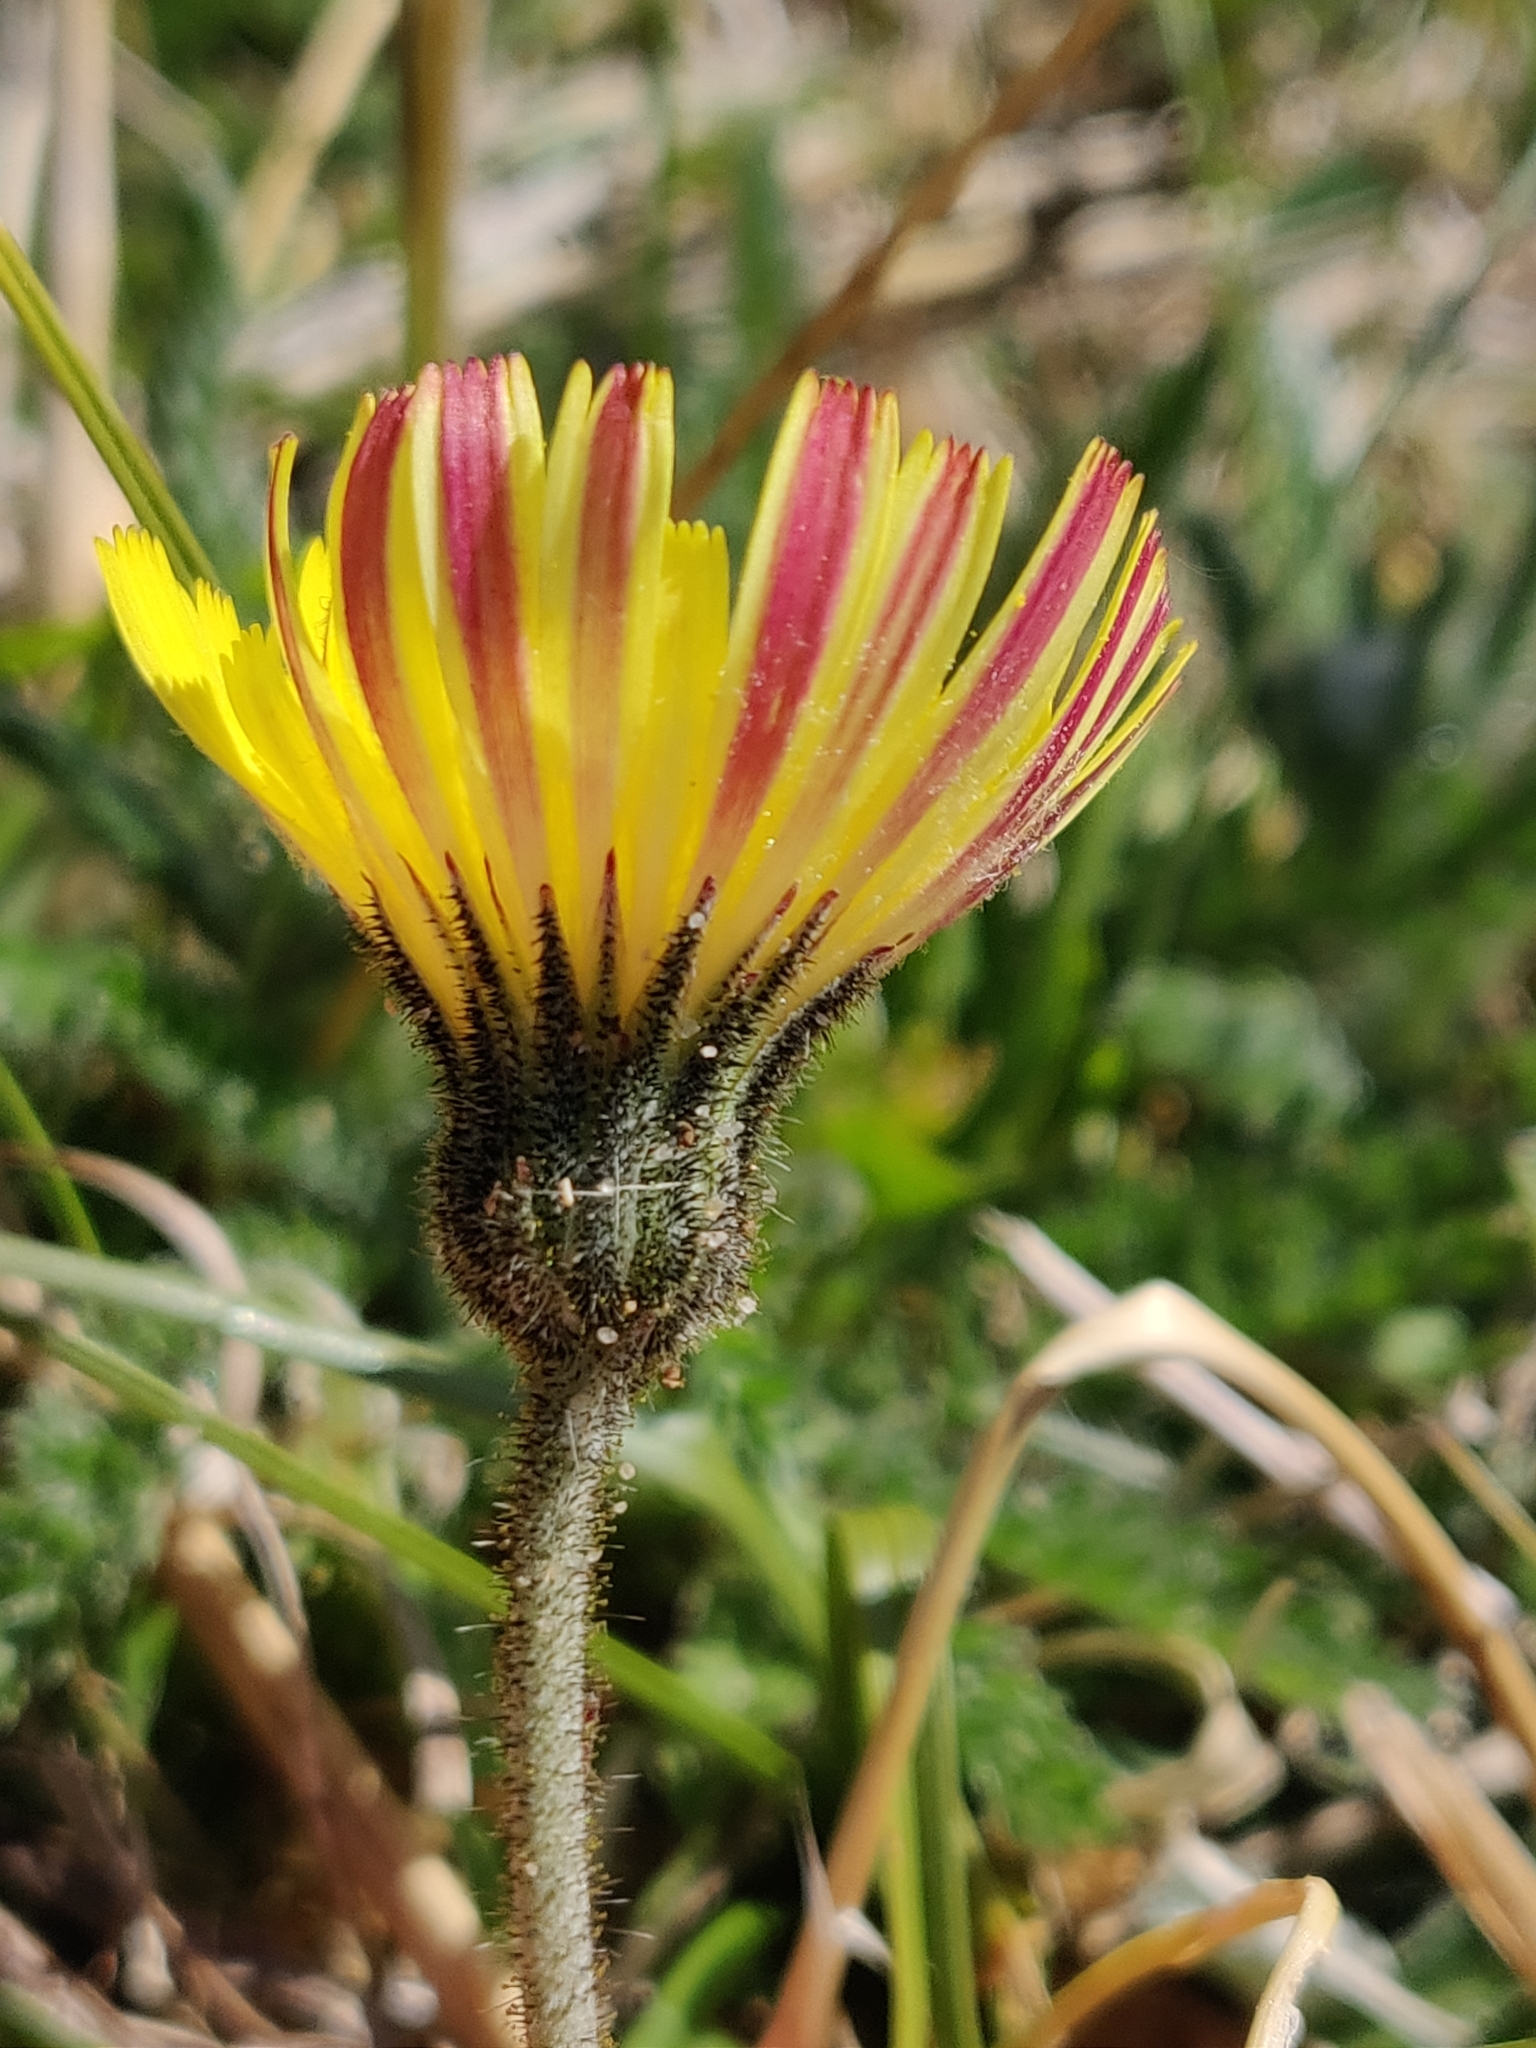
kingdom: Plantae
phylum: Tracheophyta
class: Magnoliopsida
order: Asterales
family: Asteraceae
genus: Pilosella
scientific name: Pilosella officinarum
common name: Mouse-ear hawkweed
